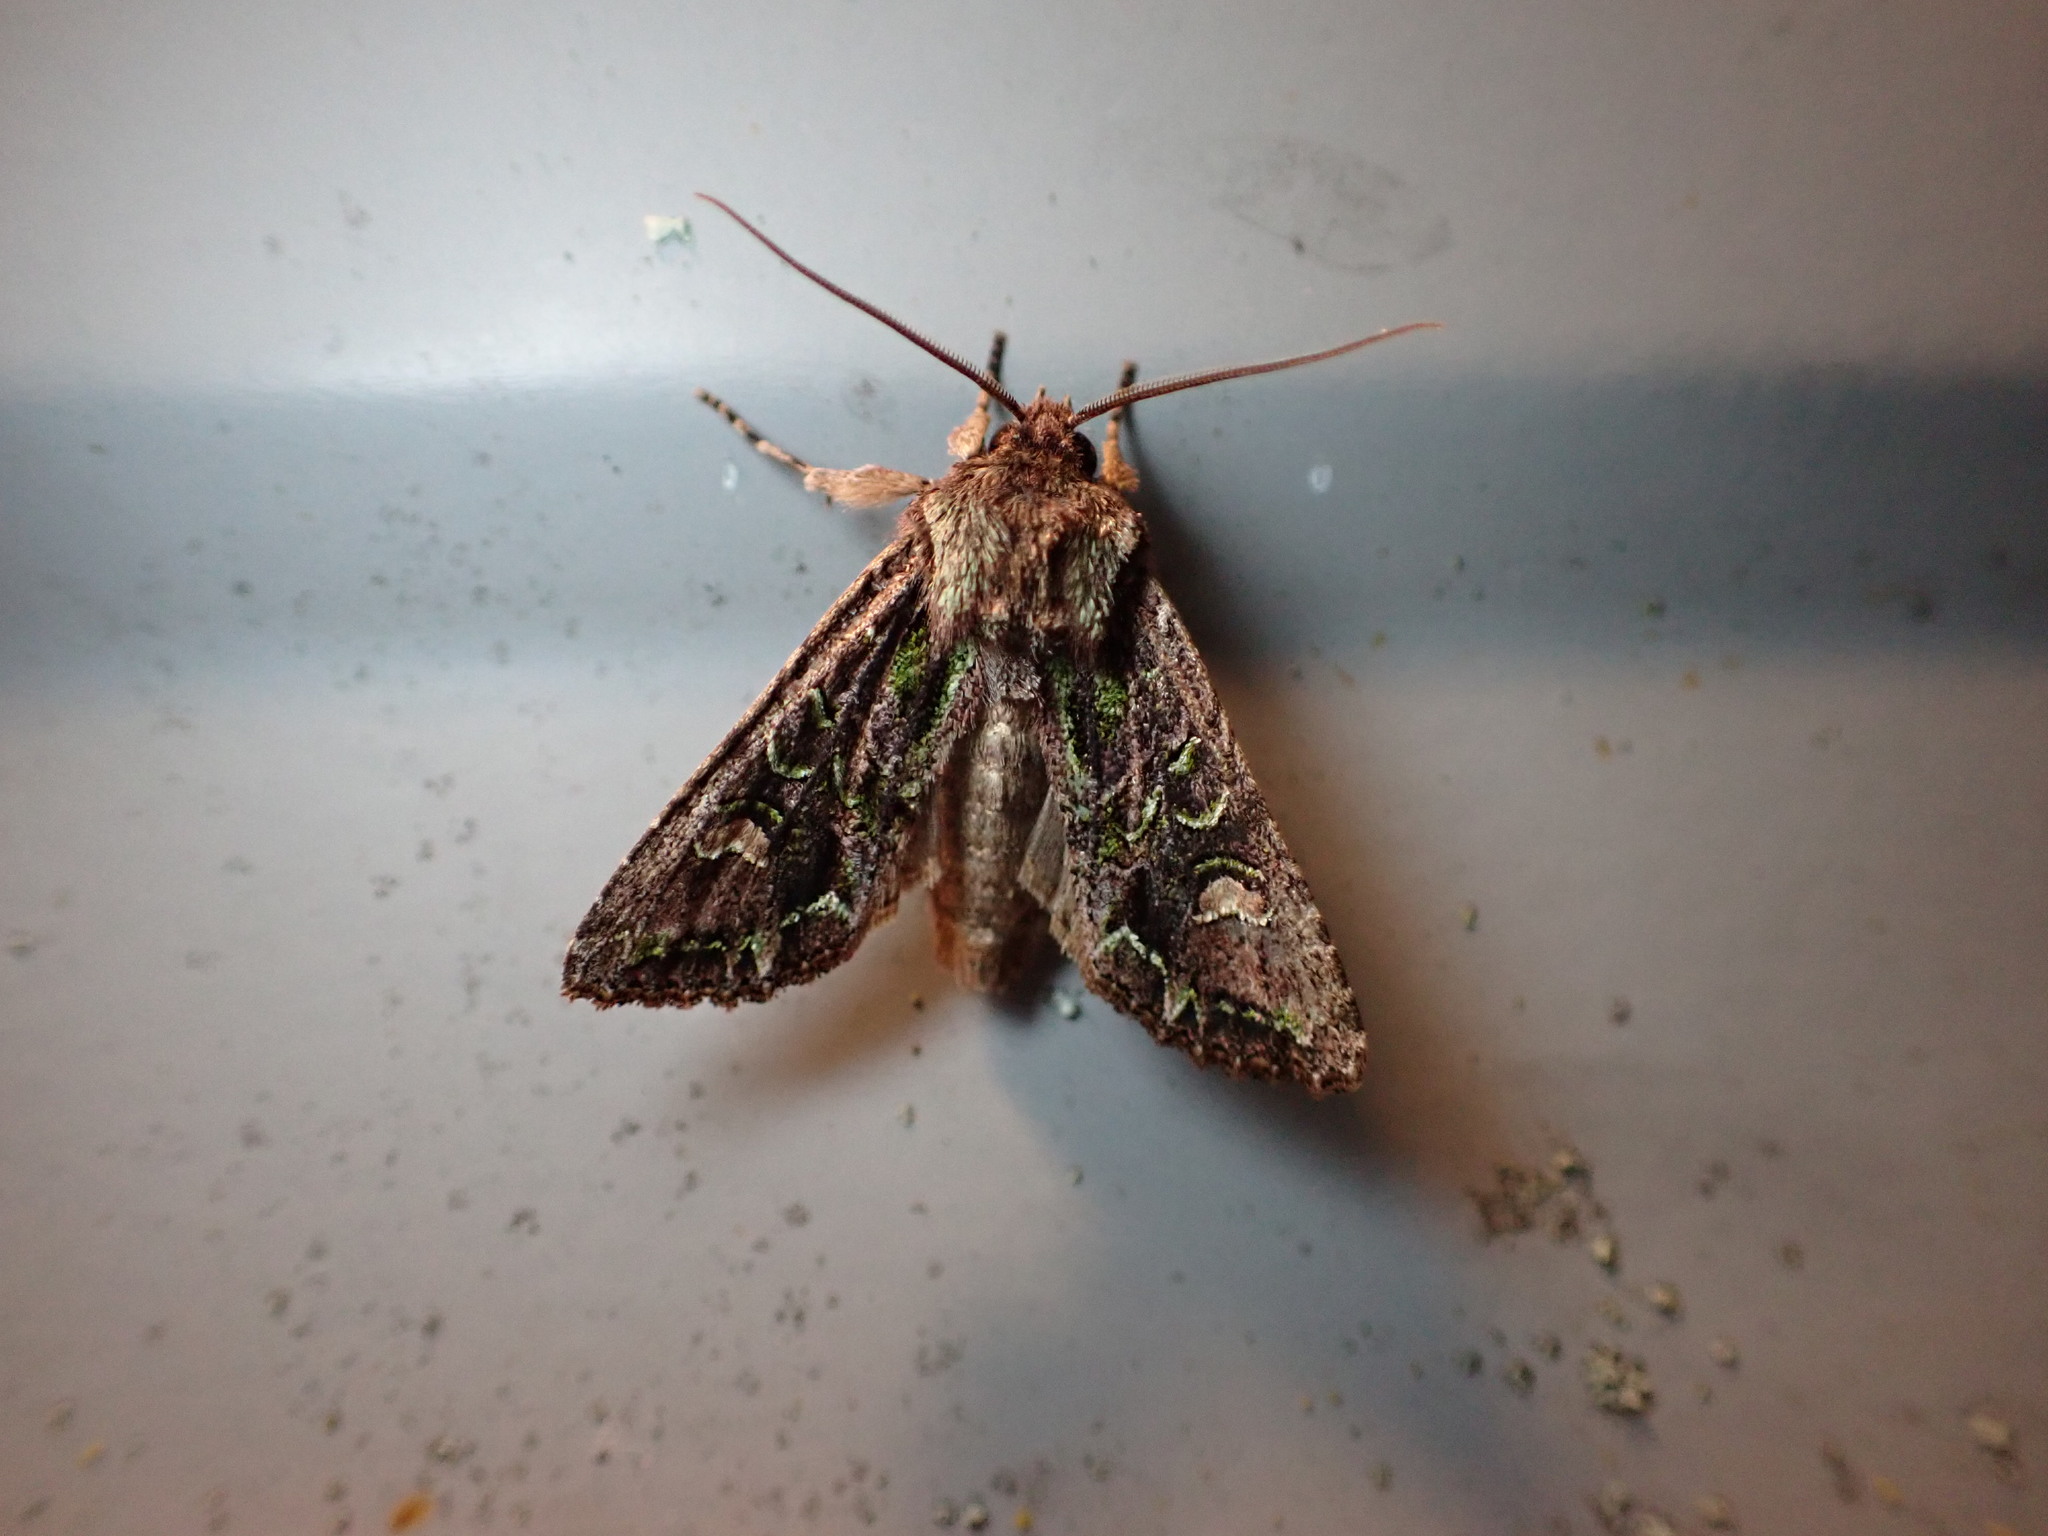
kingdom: Animalia
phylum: Arthropoda
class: Insecta
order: Lepidoptera
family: Noctuidae
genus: Ichneutica
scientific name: Ichneutica insignis
